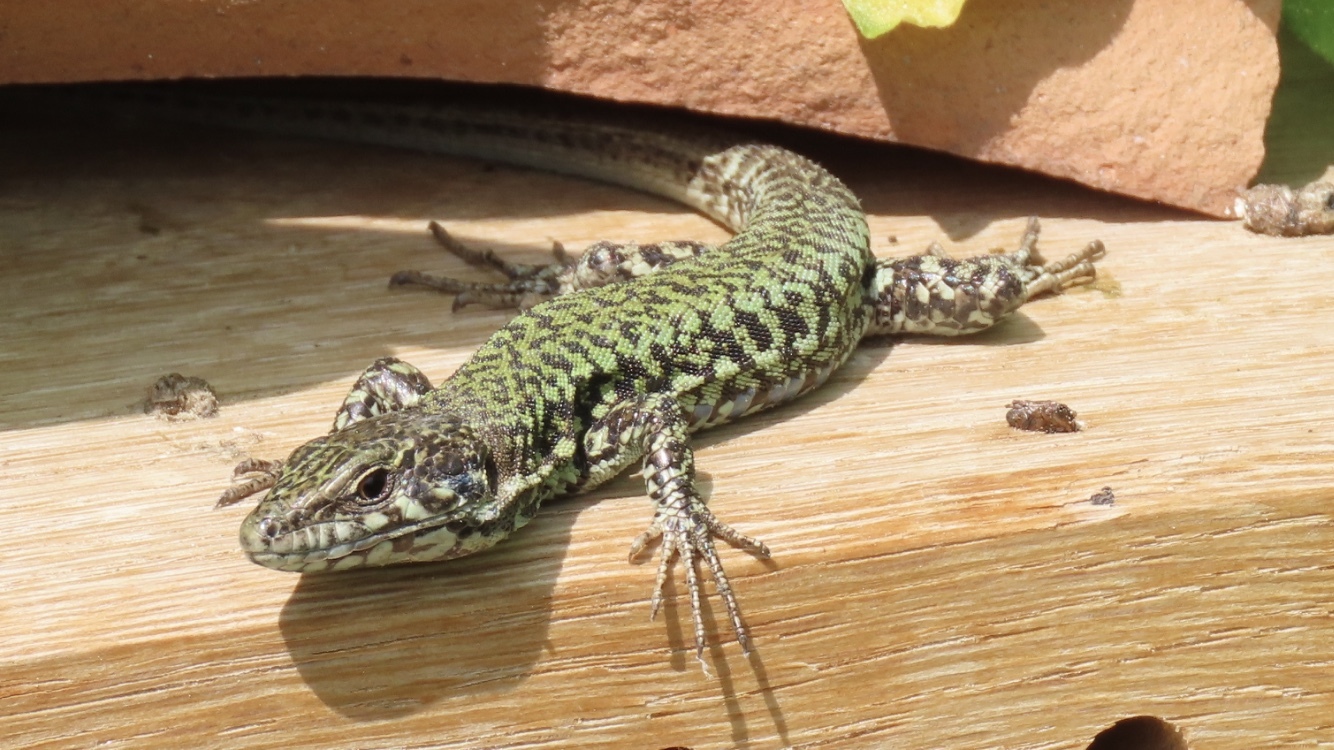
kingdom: Animalia
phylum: Chordata
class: Squamata
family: Lacertidae
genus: Podarcis
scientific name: Podarcis muralis
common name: Common wall lizard
